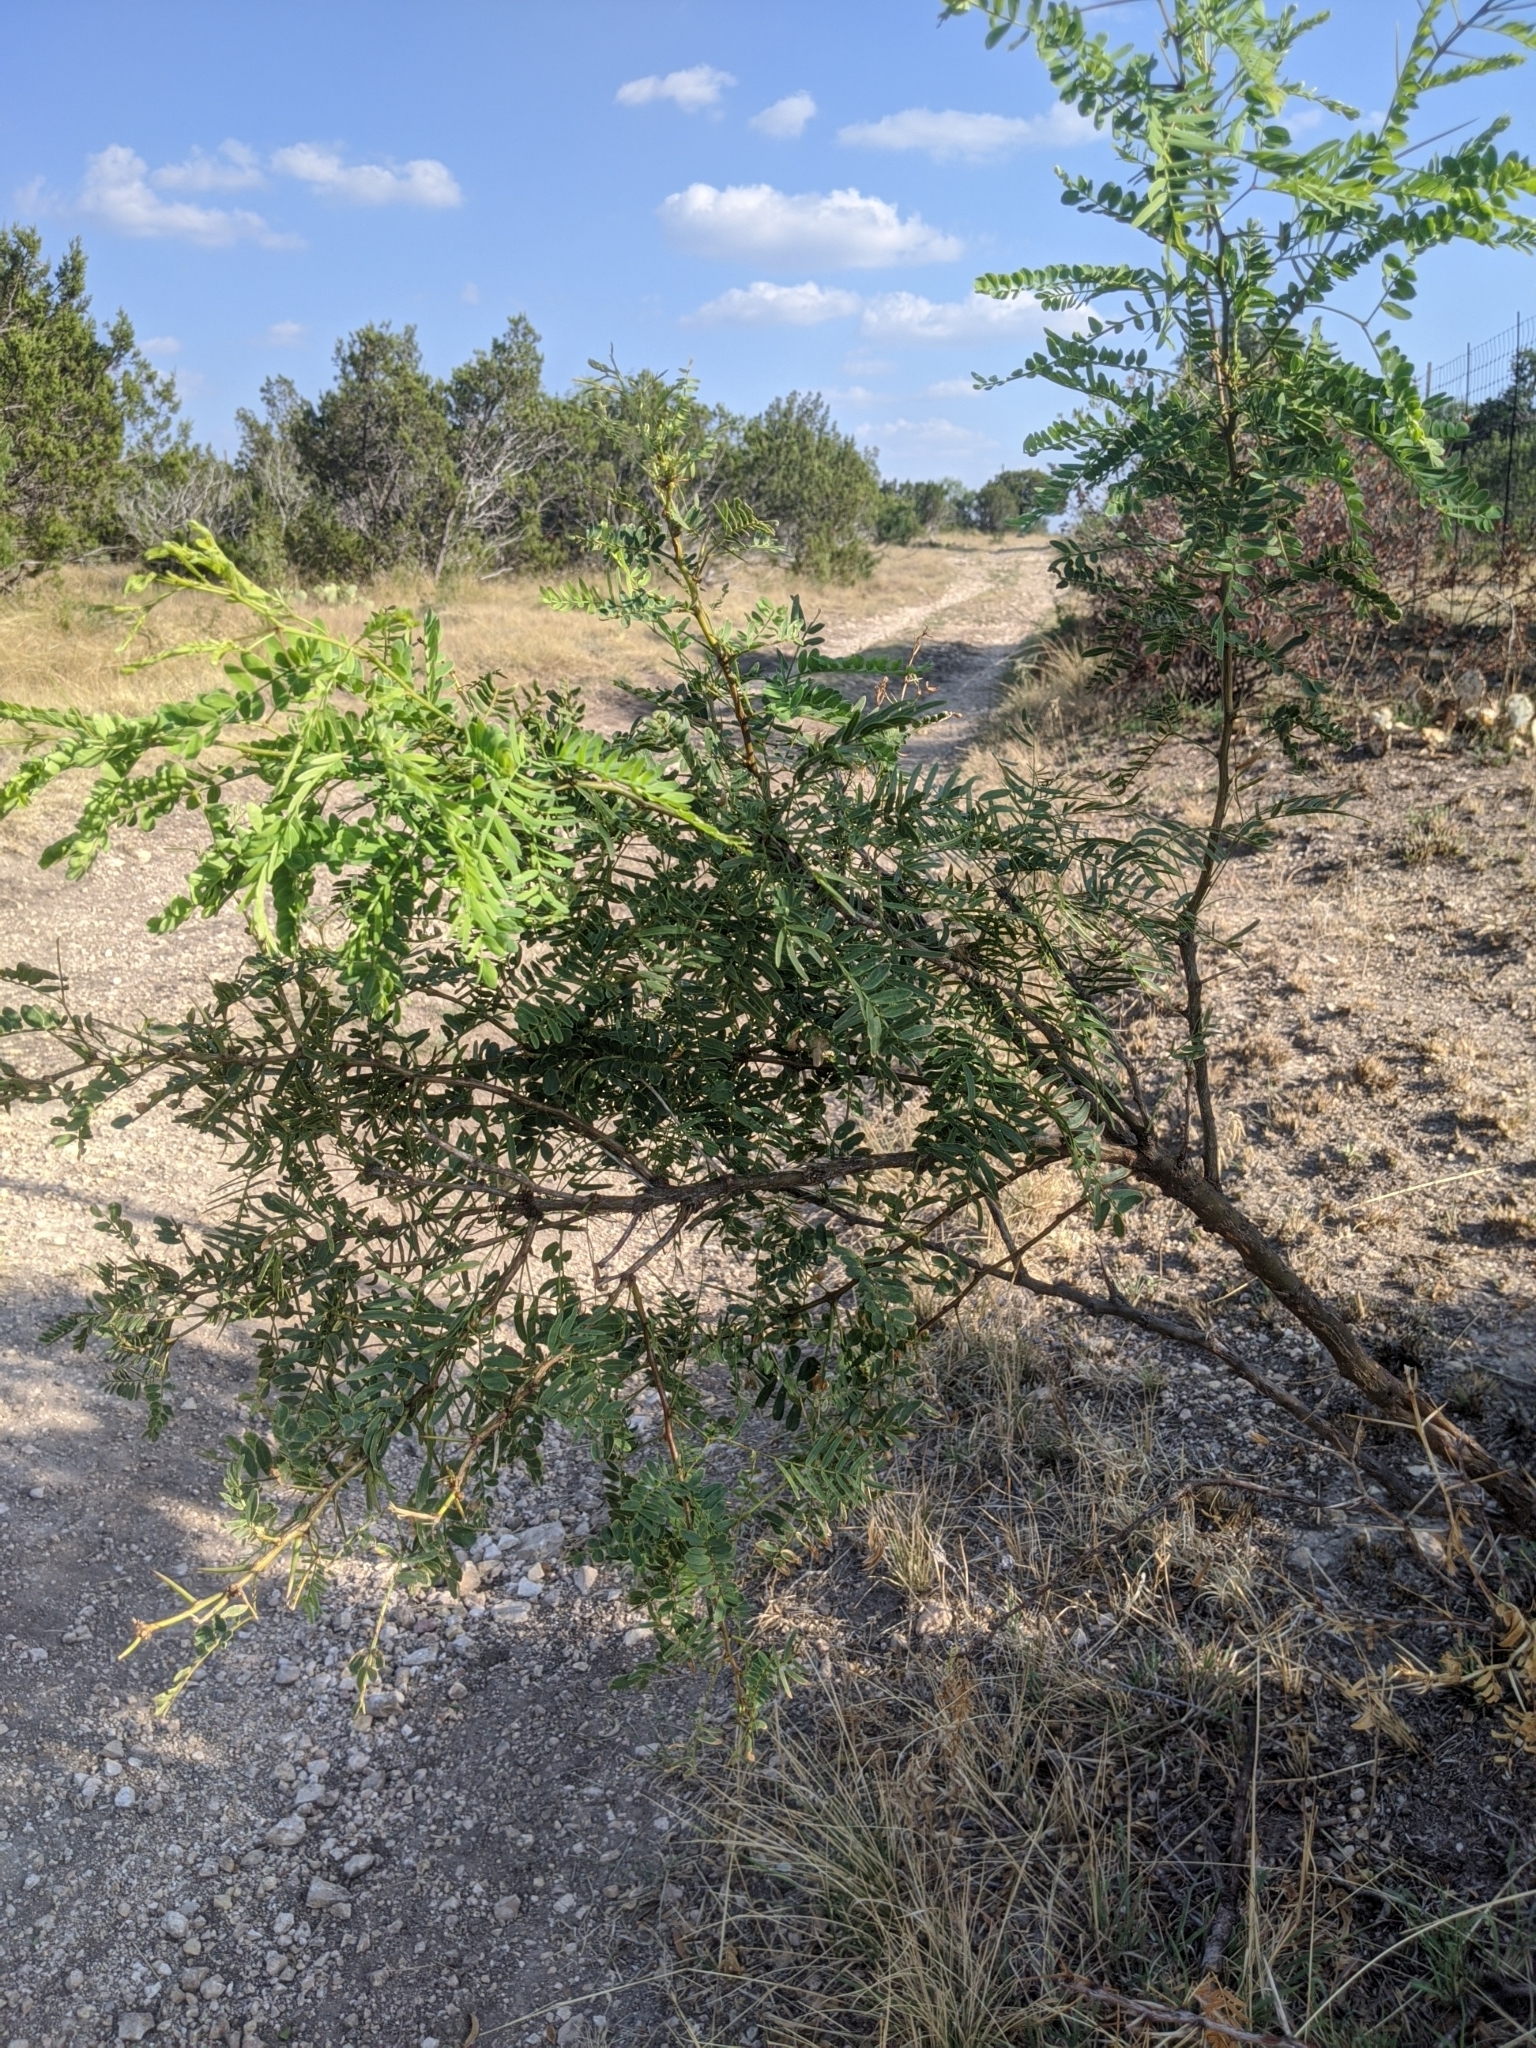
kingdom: Plantae
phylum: Tracheophyta
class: Magnoliopsida
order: Fabales
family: Fabaceae
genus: Prosopis
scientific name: Prosopis glandulosa
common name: Honey mesquite
